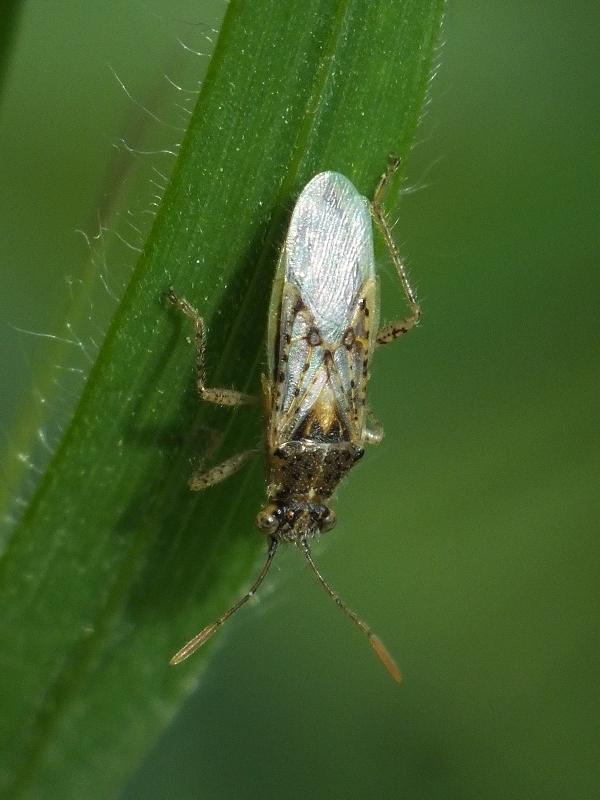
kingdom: Animalia
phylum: Arthropoda
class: Insecta
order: Hemiptera
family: Rhopalidae
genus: Brachycarenus
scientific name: Brachycarenus tigrinus
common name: Scentless plant bug
